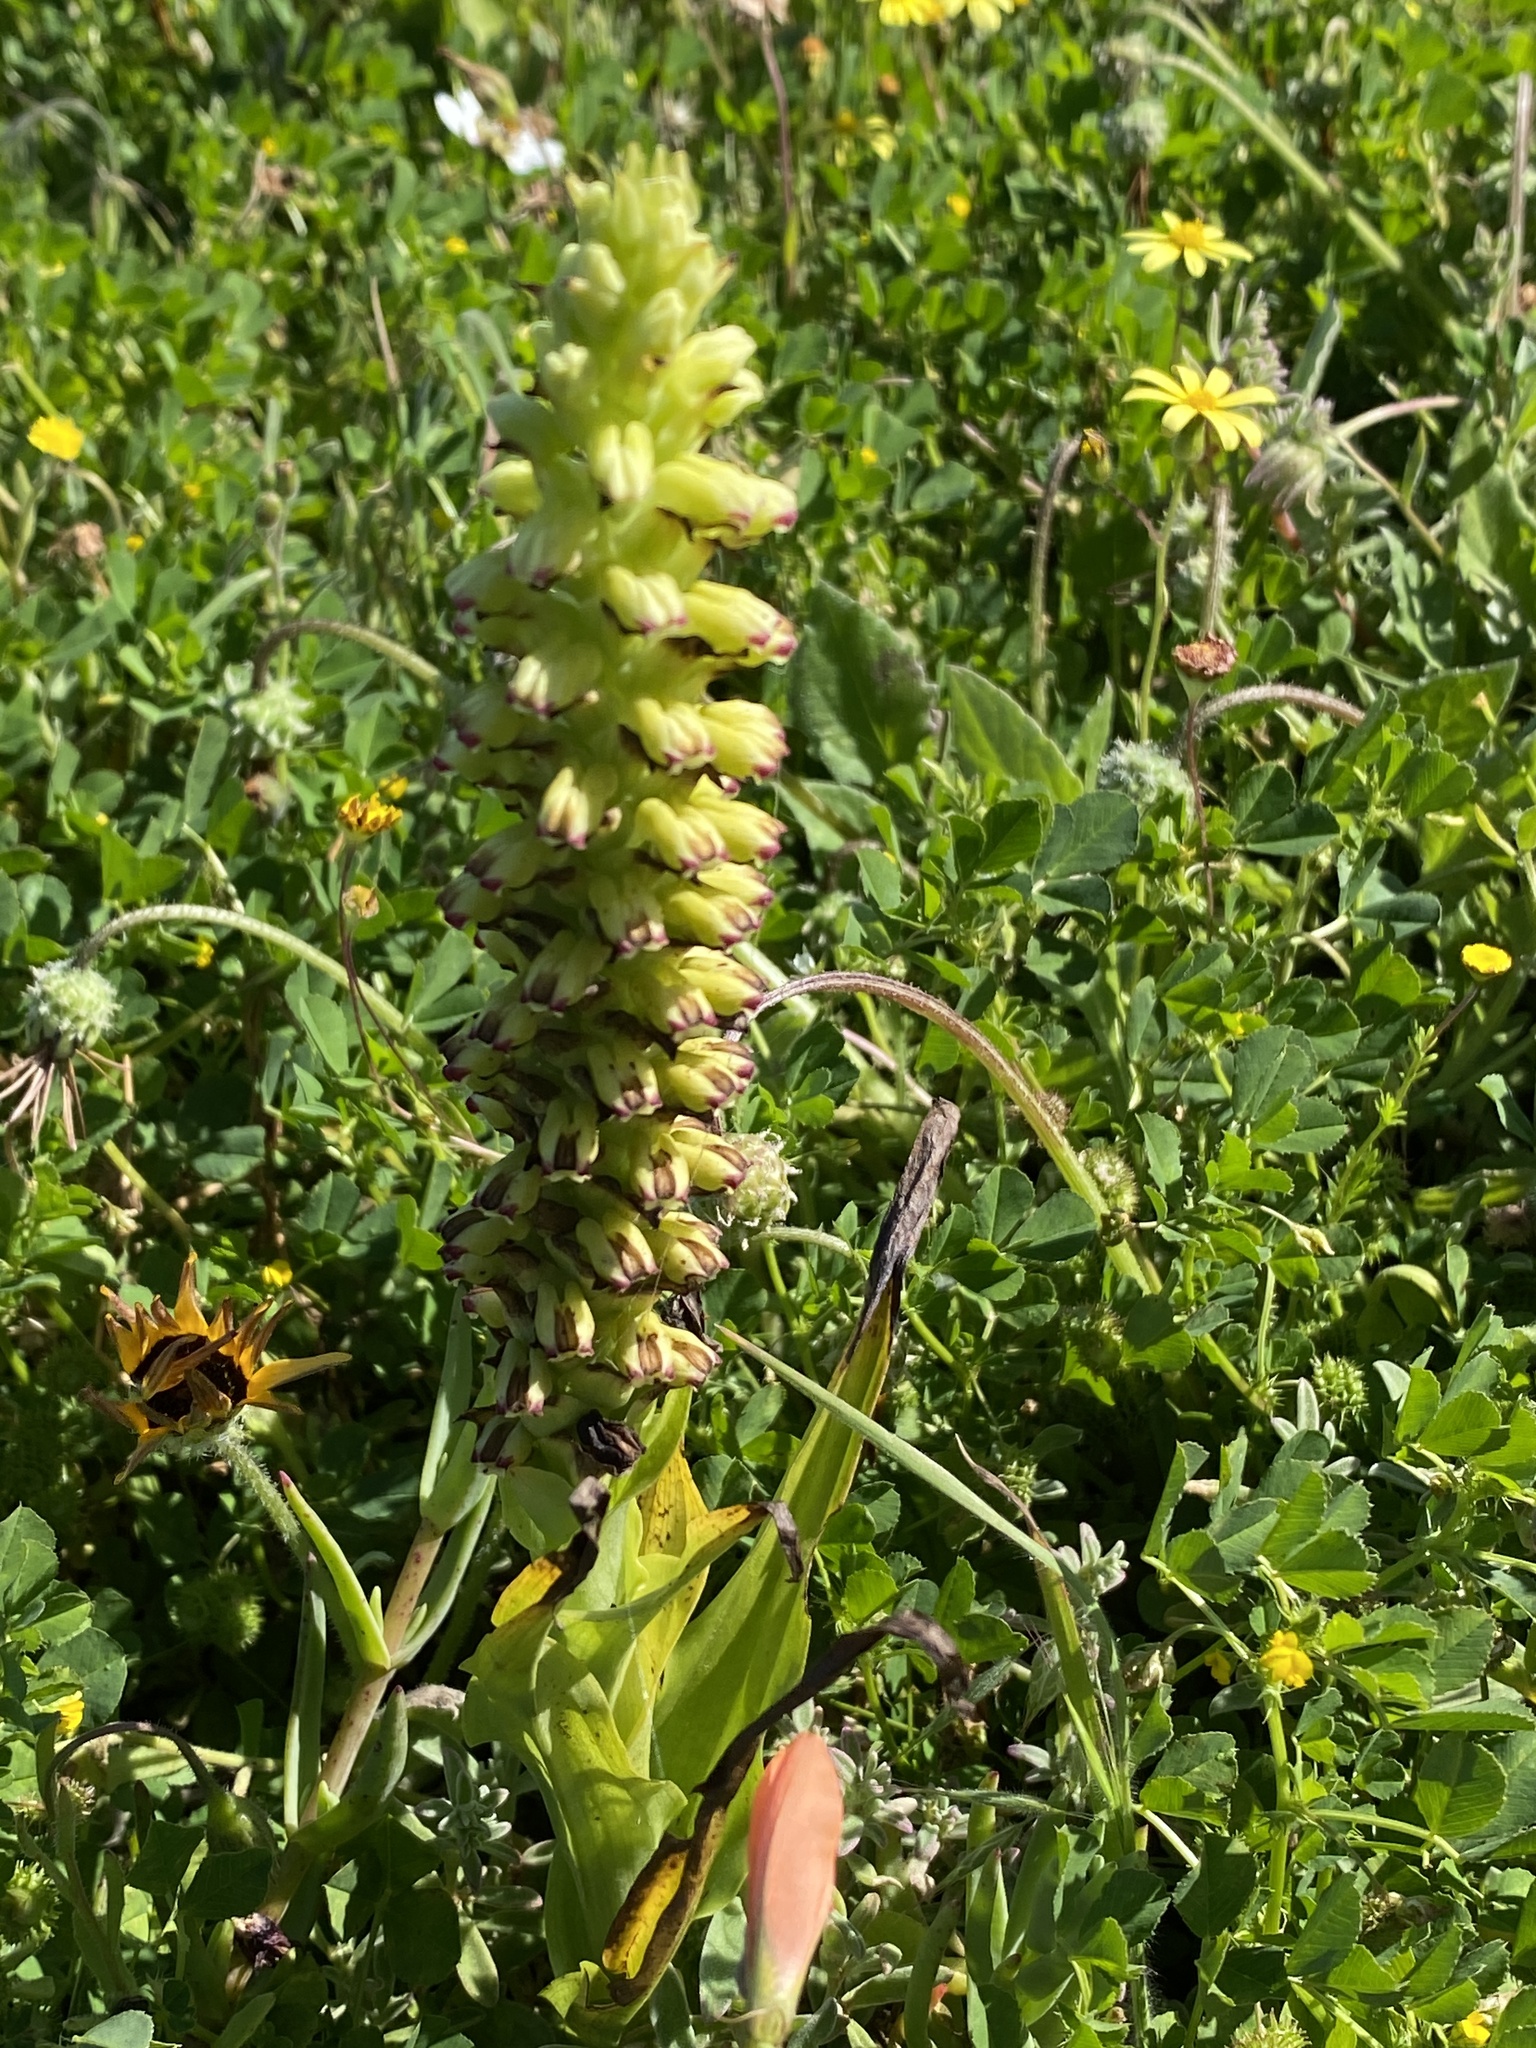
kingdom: Plantae
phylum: Tracheophyta
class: Liliopsida
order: Asparagales
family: Orchidaceae
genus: Corycium
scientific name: Corycium orobanchoides
